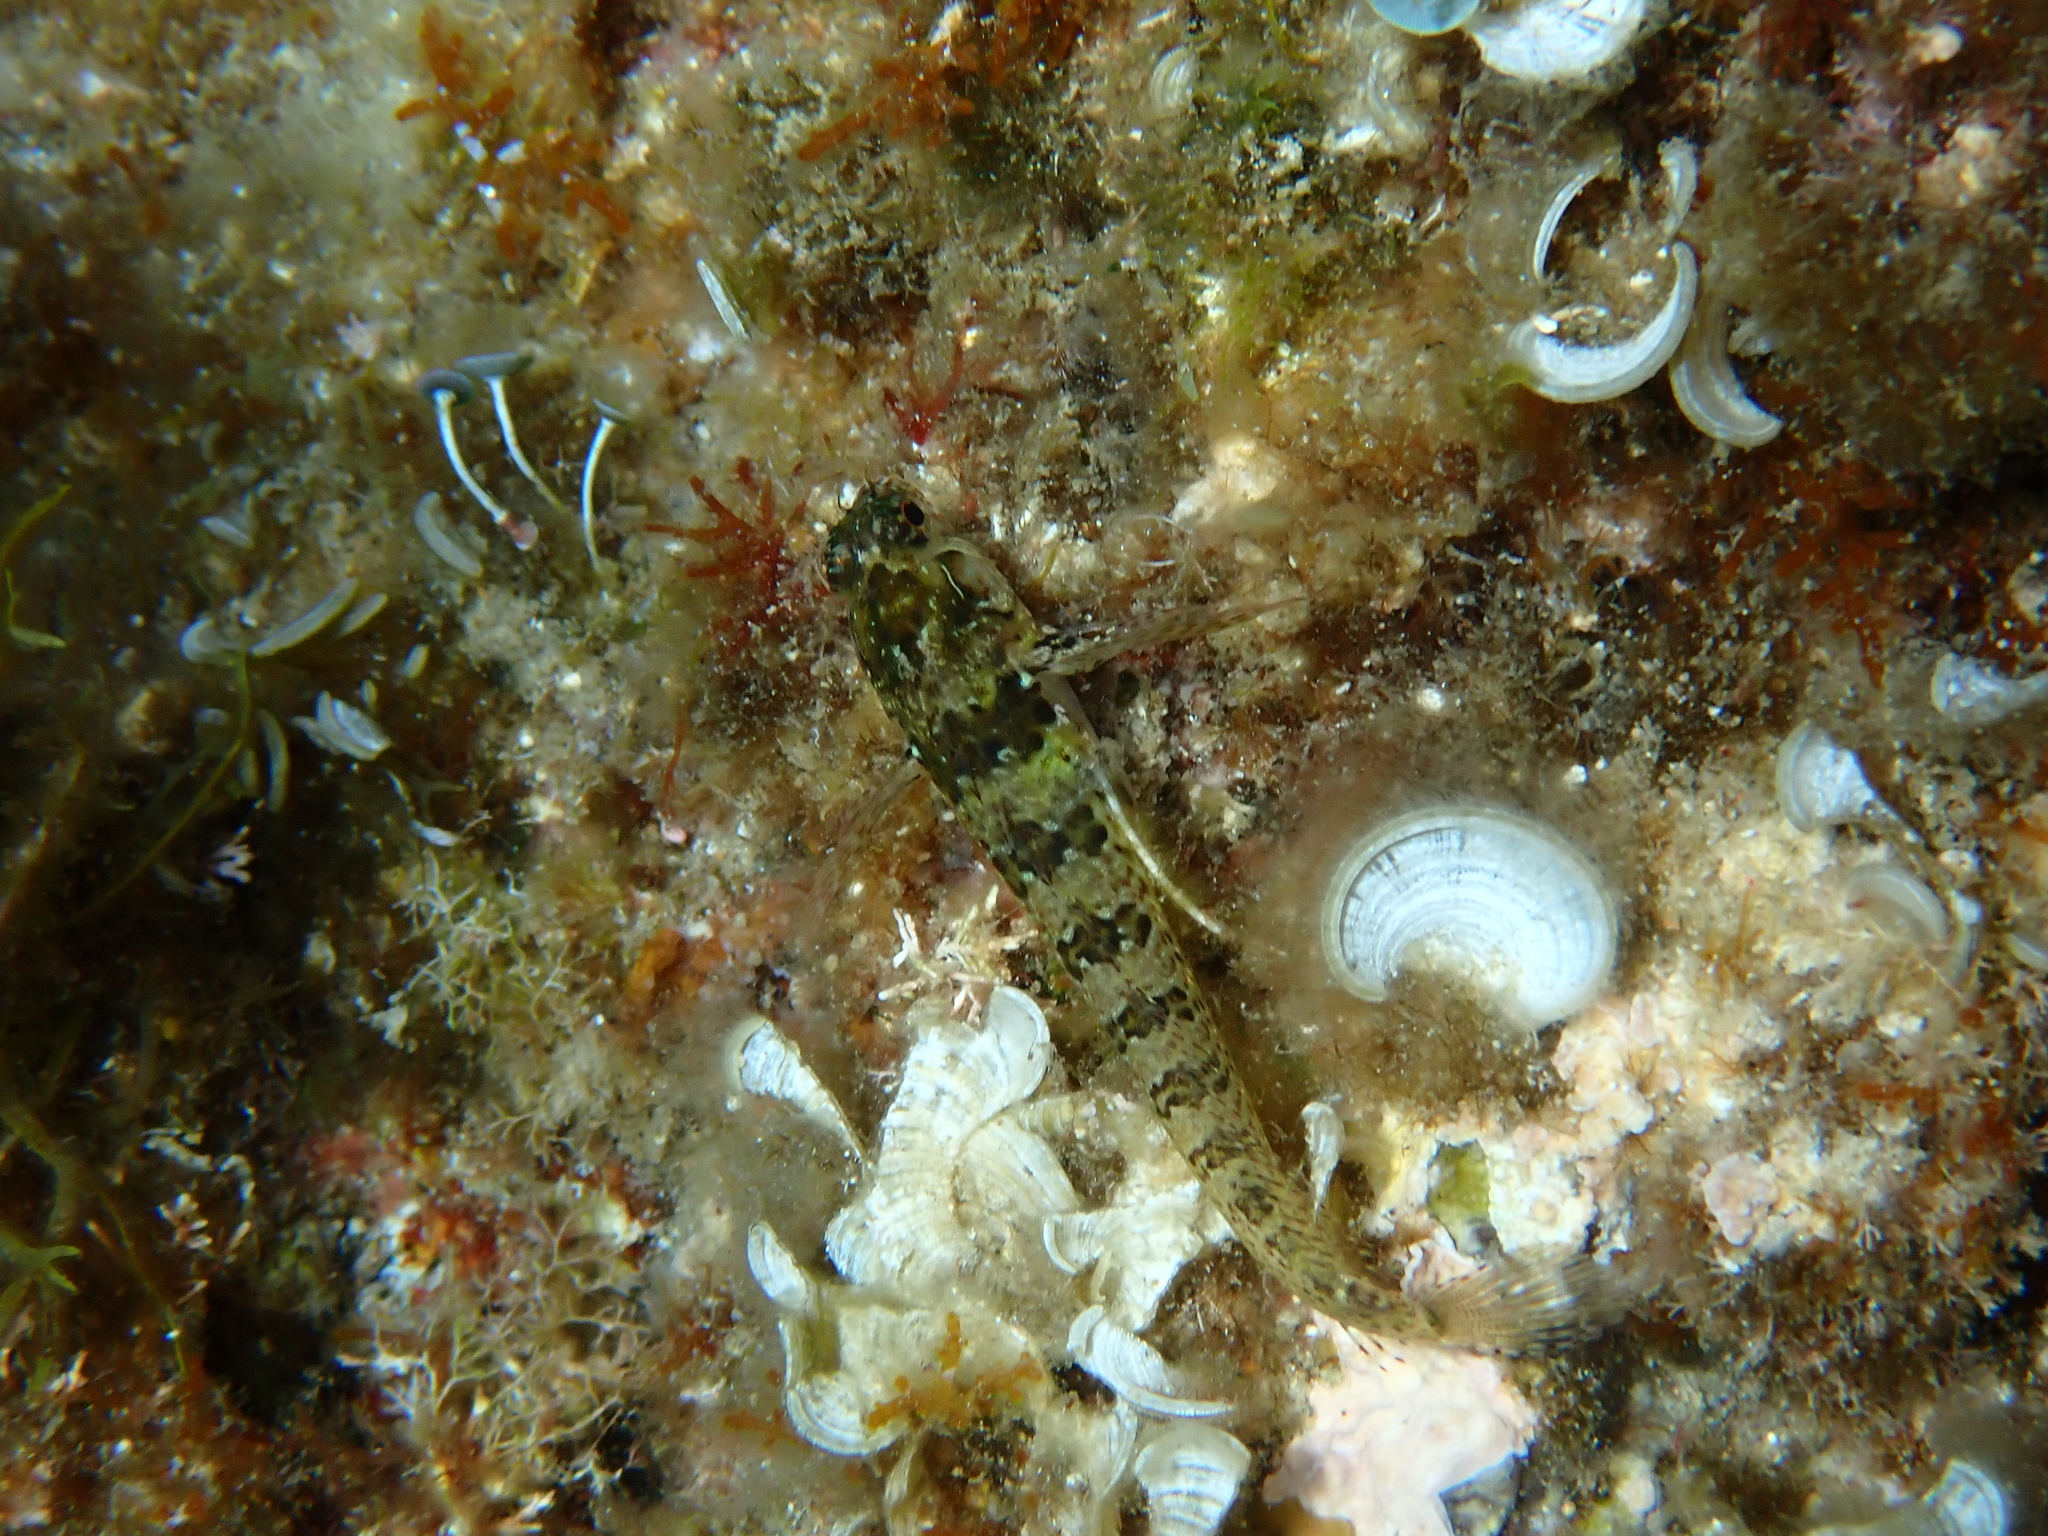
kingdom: Animalia
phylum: Chordata
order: Perciformes
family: Blenniidae
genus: Parablennius
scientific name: Parablennius incognitus
